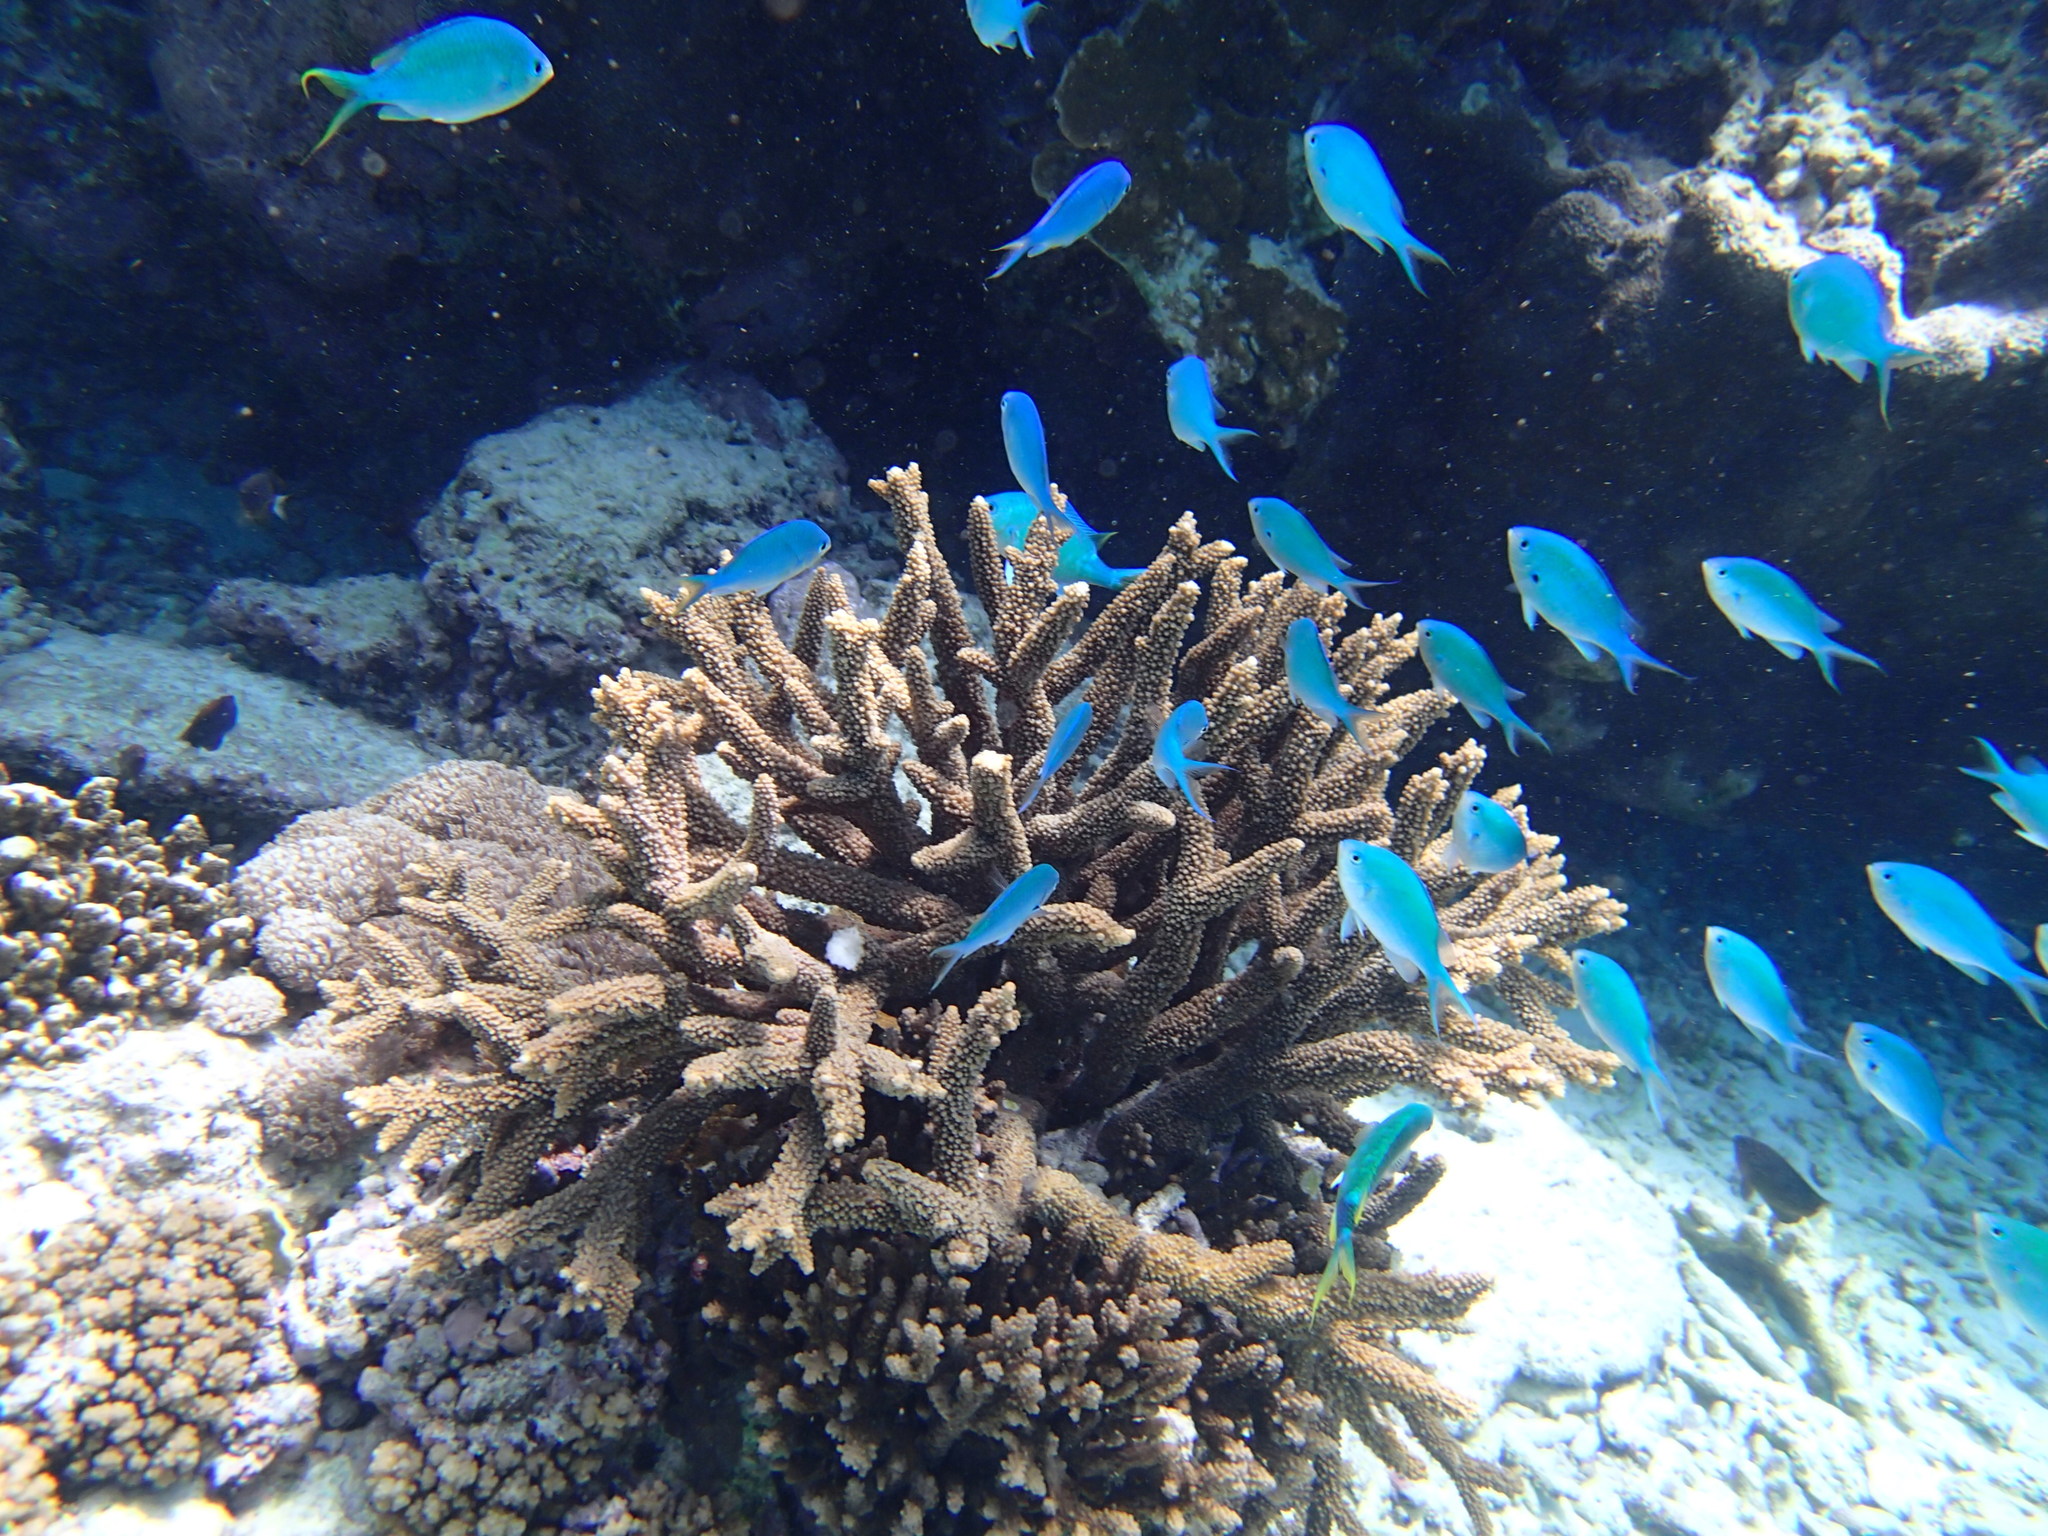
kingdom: Animalia
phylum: Chordata
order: Perciformes
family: Pomacentridae
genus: Chromis
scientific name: Chromis atripectoralis
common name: Black-axil chromis
